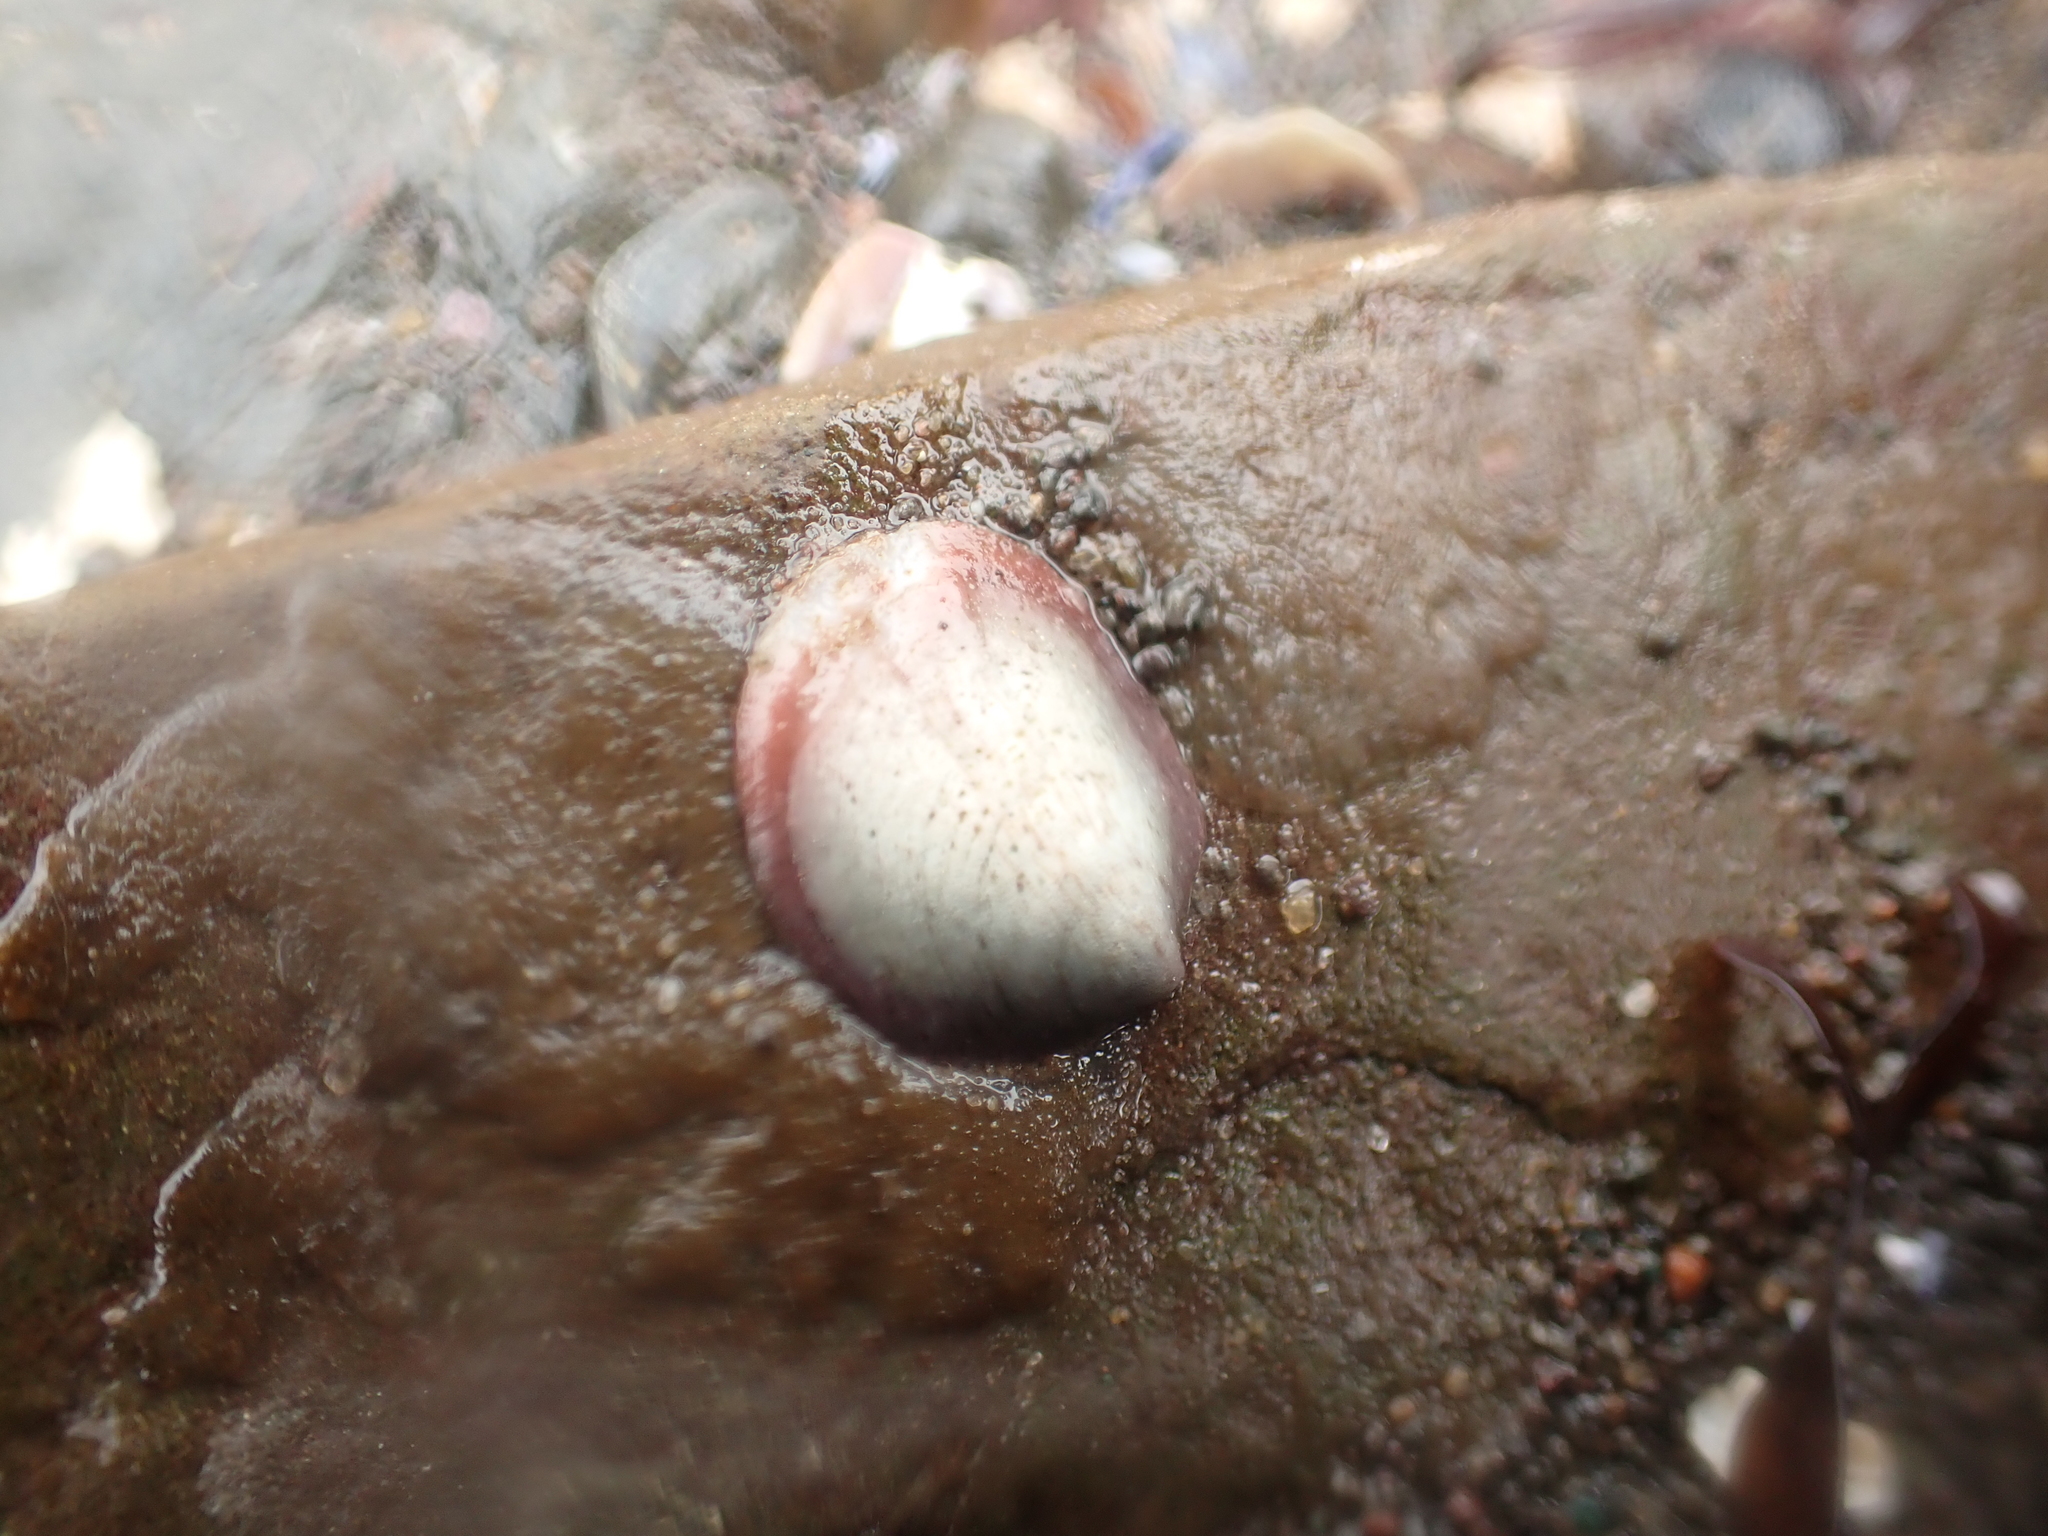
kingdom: Animalia
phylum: Mollusca
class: Gastropoda
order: Littorinimorpha
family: Calyptraeidae
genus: Crepidula
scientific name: Crepidula fornicata
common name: Slipper limpet
